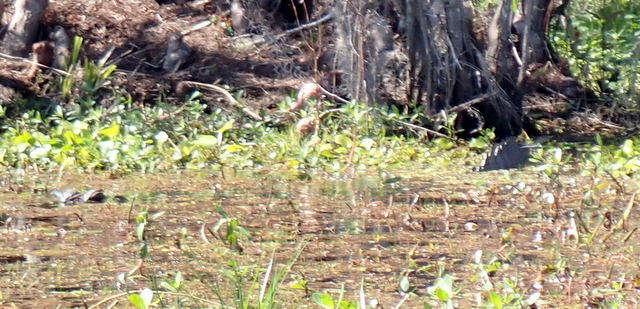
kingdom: Animalia
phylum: Chordata
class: Crocodylia
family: Alligatoridae
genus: Alligator
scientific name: Alligator mississippiensis
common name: American alligator
